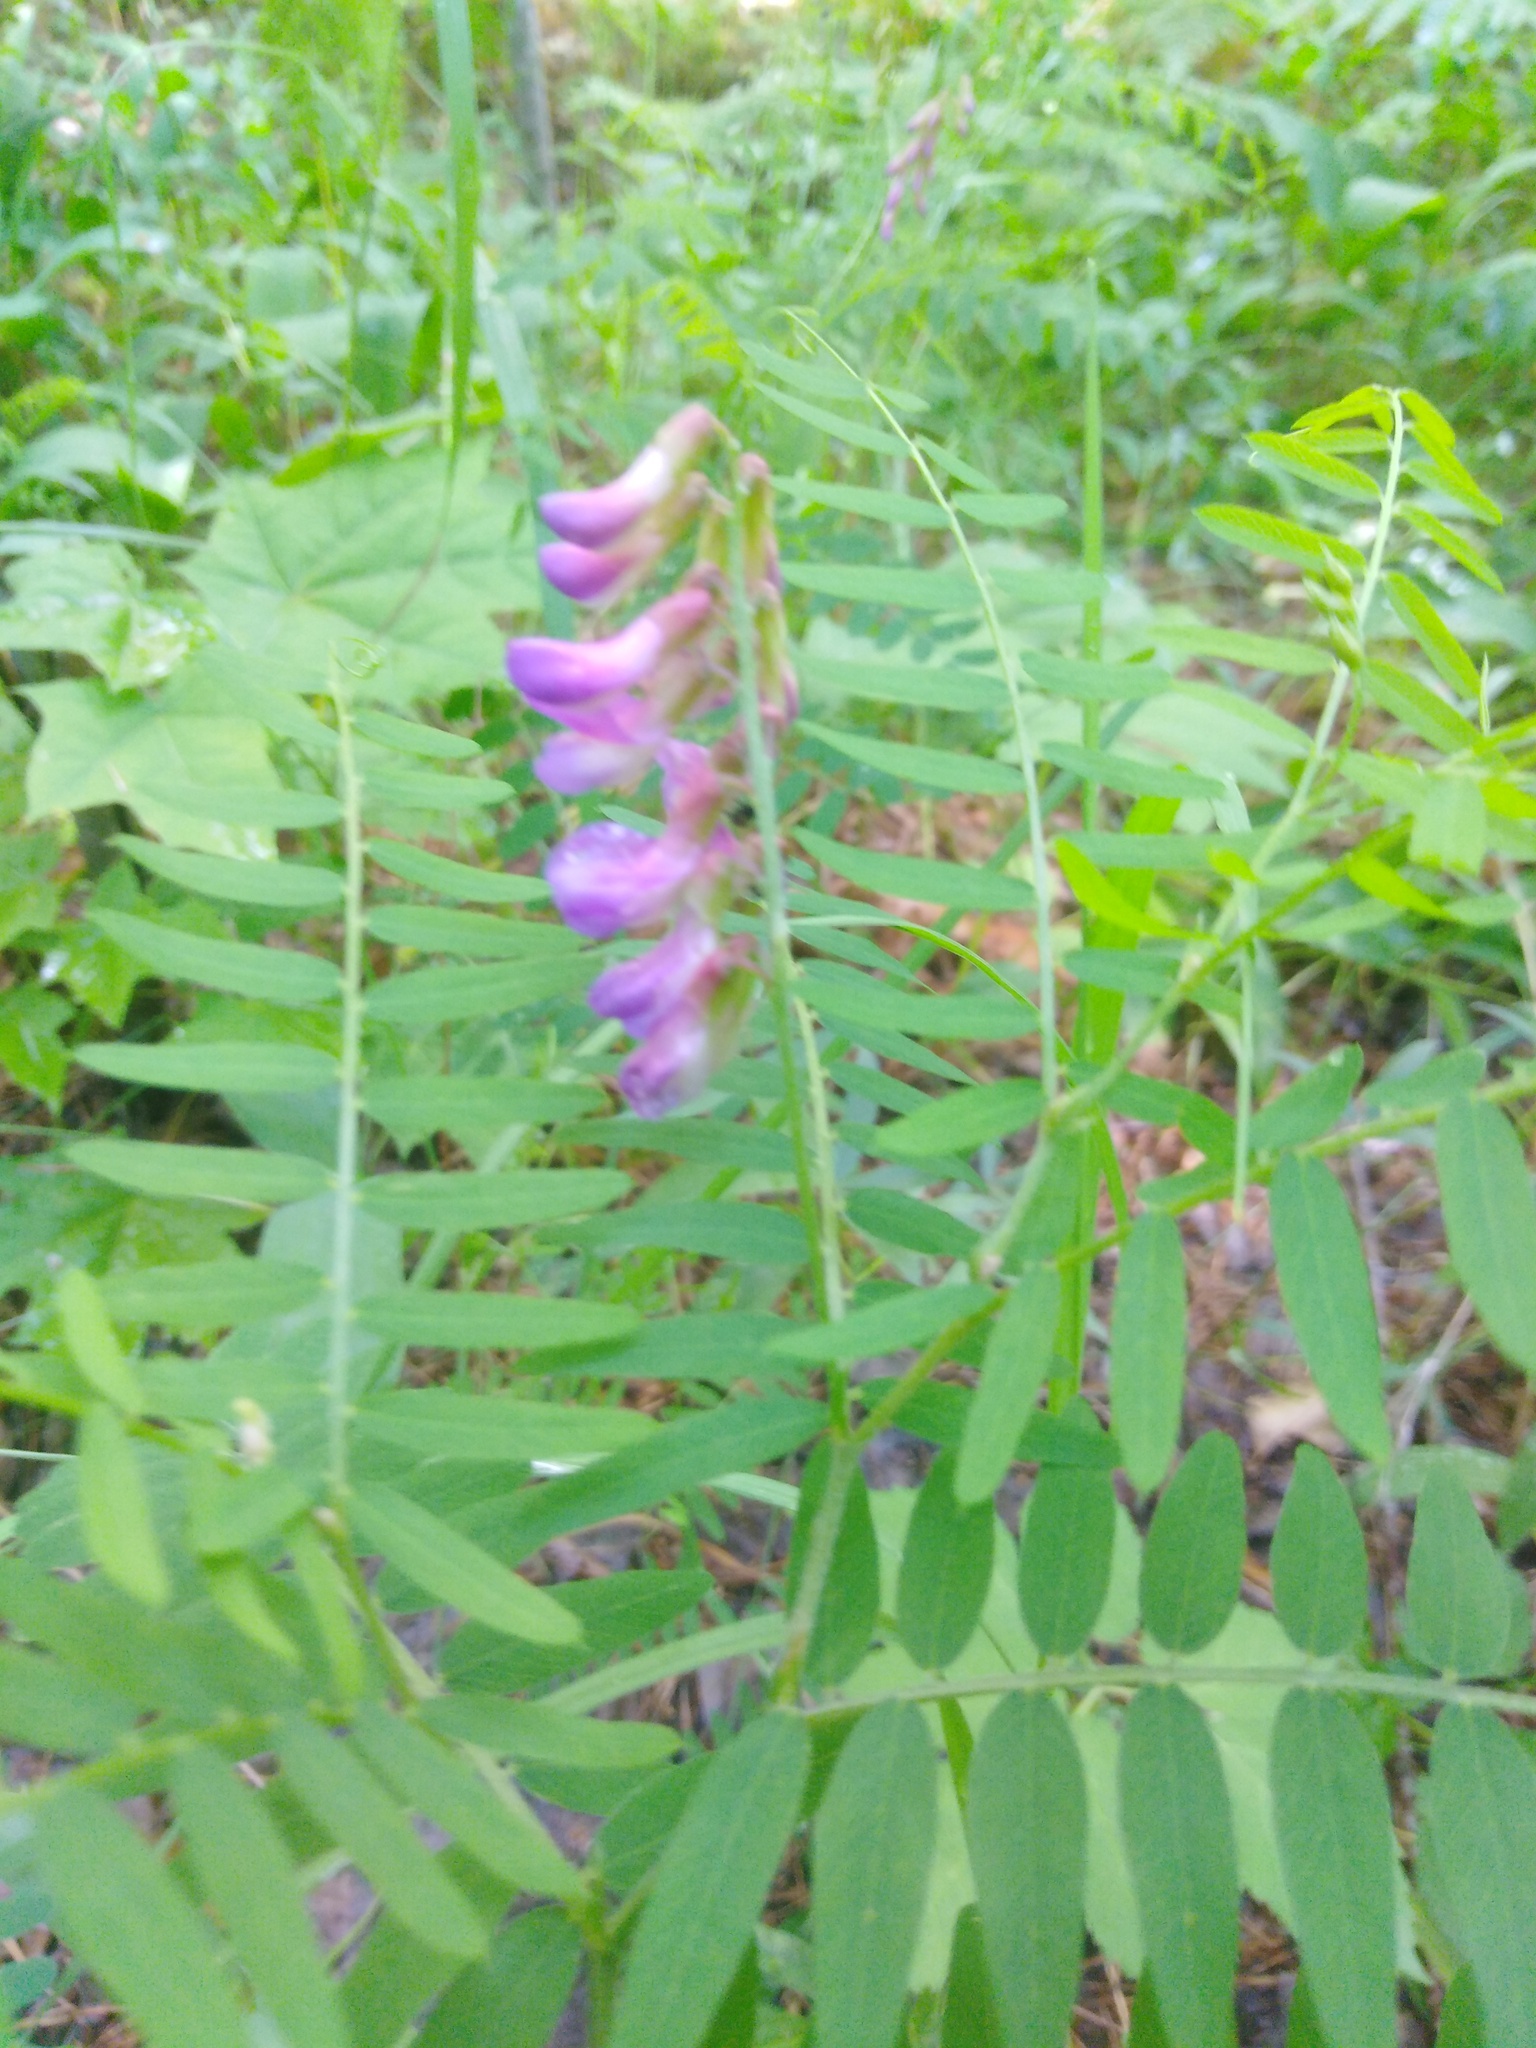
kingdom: Plantae
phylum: Tracheophyta
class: Magnoliopsida
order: Fabales
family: Fabaceae
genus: Vicia
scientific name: Vicia cassubica
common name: Danzig vetch
